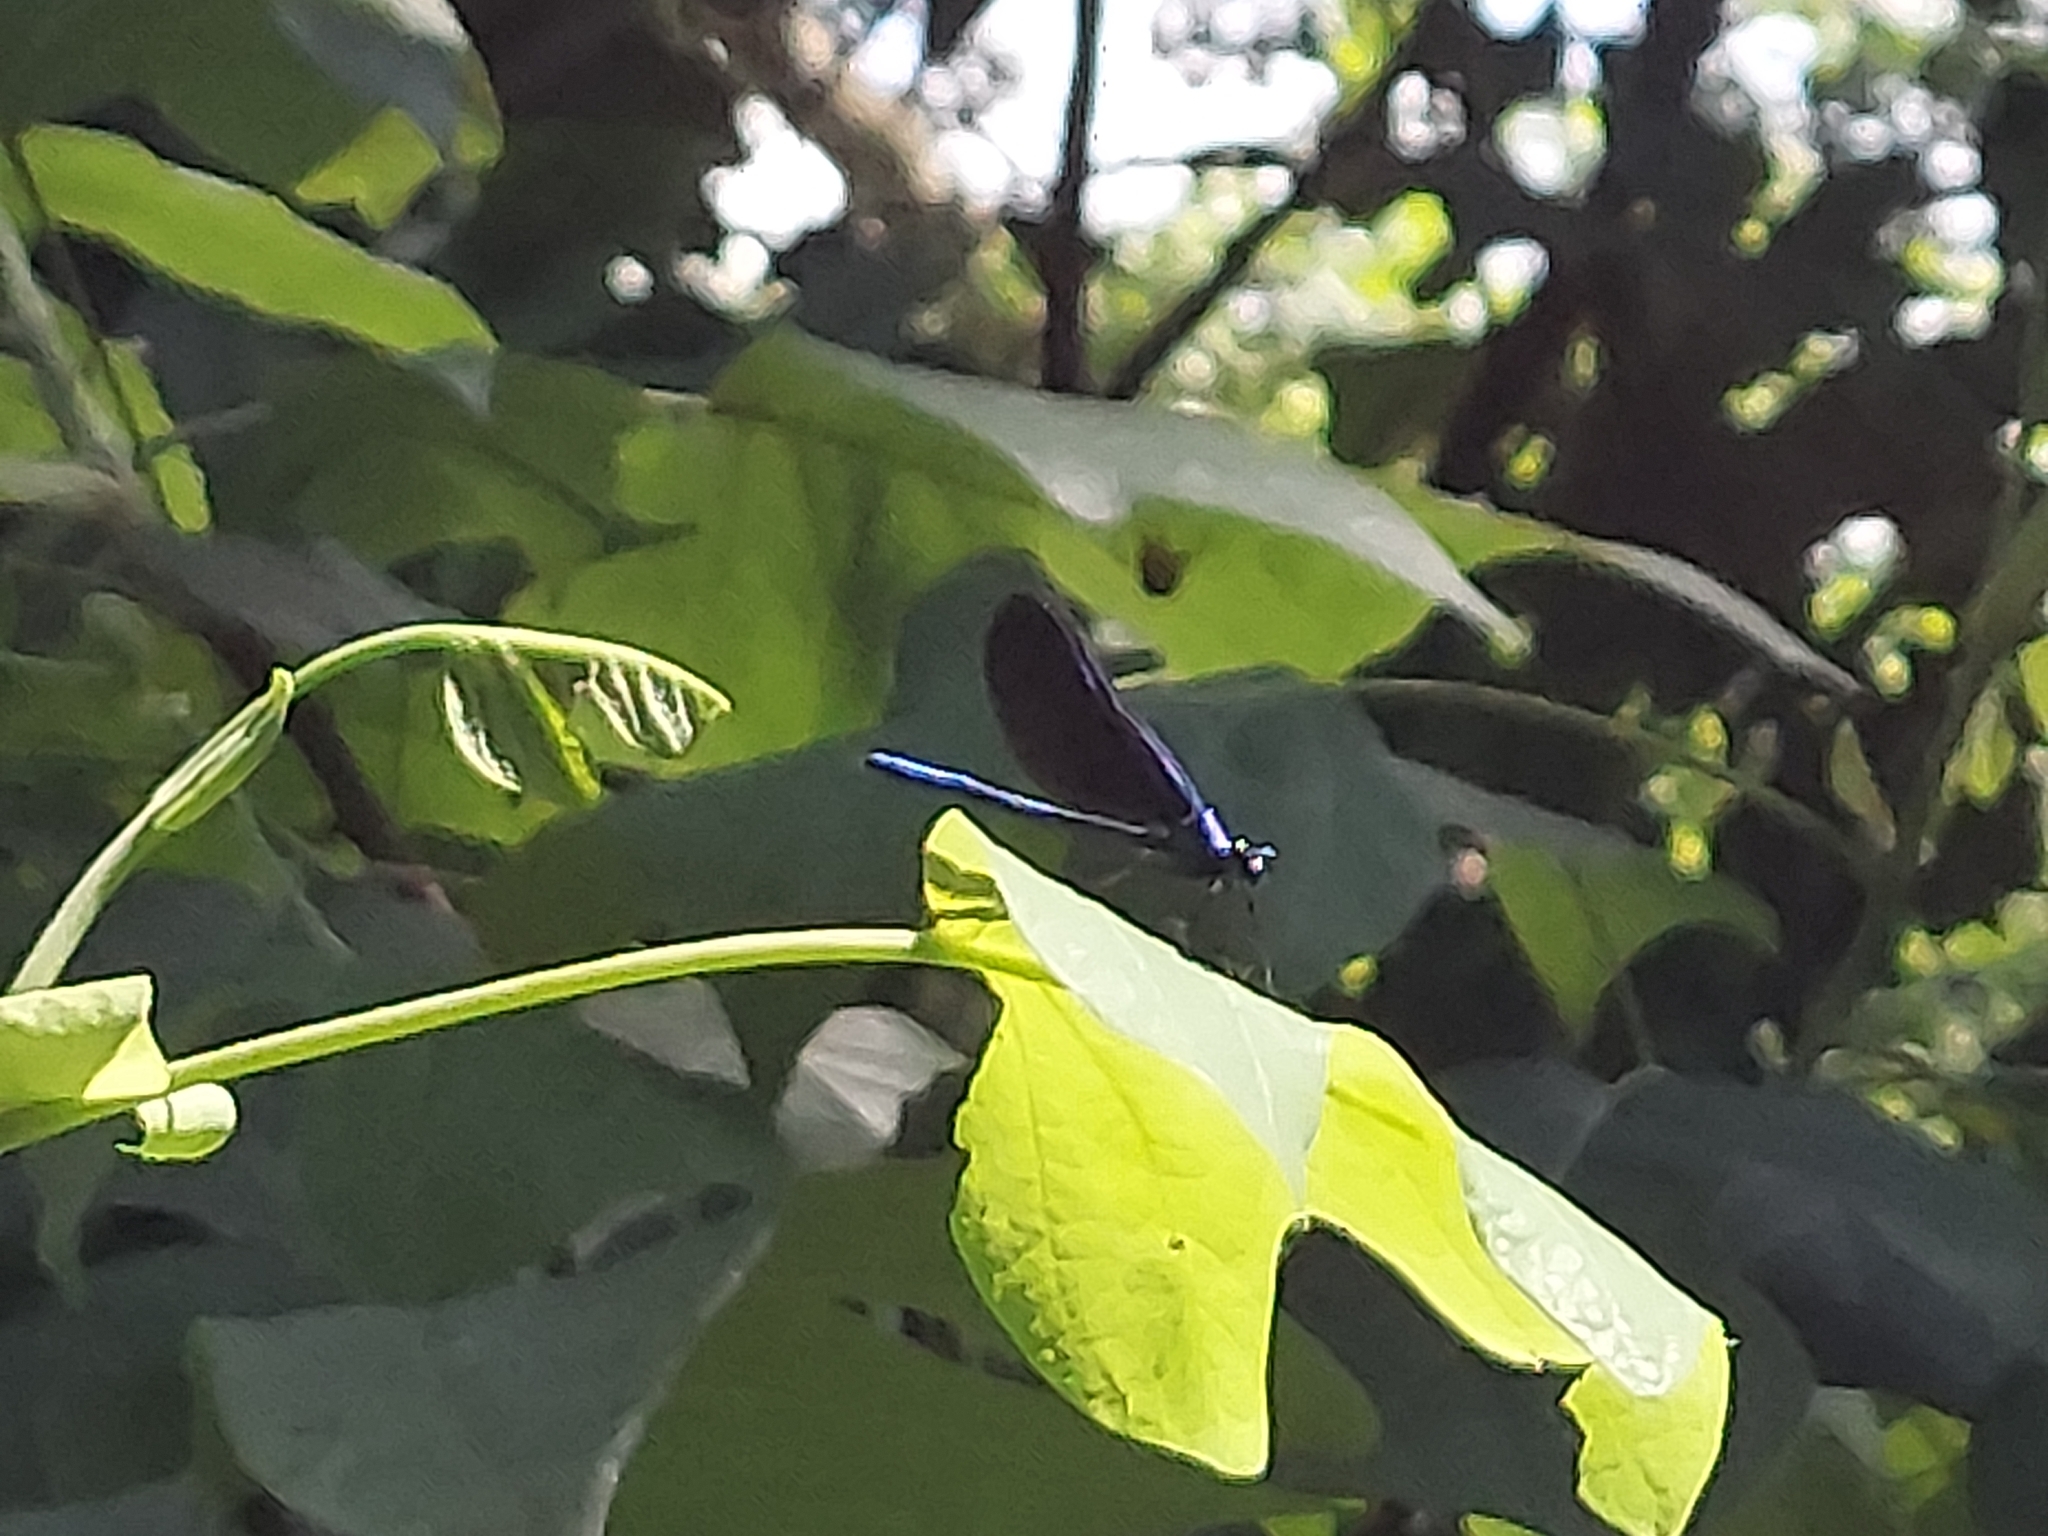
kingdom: Animalia
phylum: Arthropoda
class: Insecta
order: Odonata
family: Calopterygidae
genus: Calopteryx
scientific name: Calopteryx maculata
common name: Ebony jewelwing
